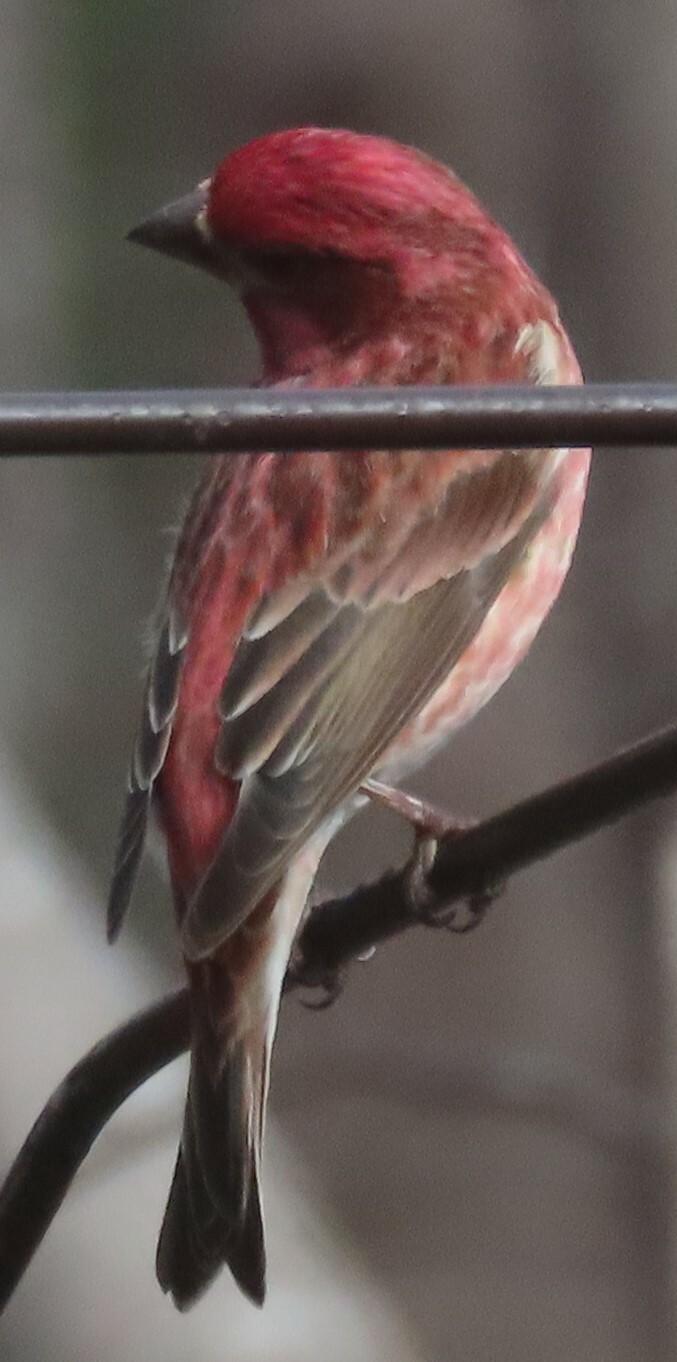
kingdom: Animalia
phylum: Chordata
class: Aves
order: Passeriformes
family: Fringillidae
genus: Haemorhous
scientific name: Haemorhous purpureus
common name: Purple finch
